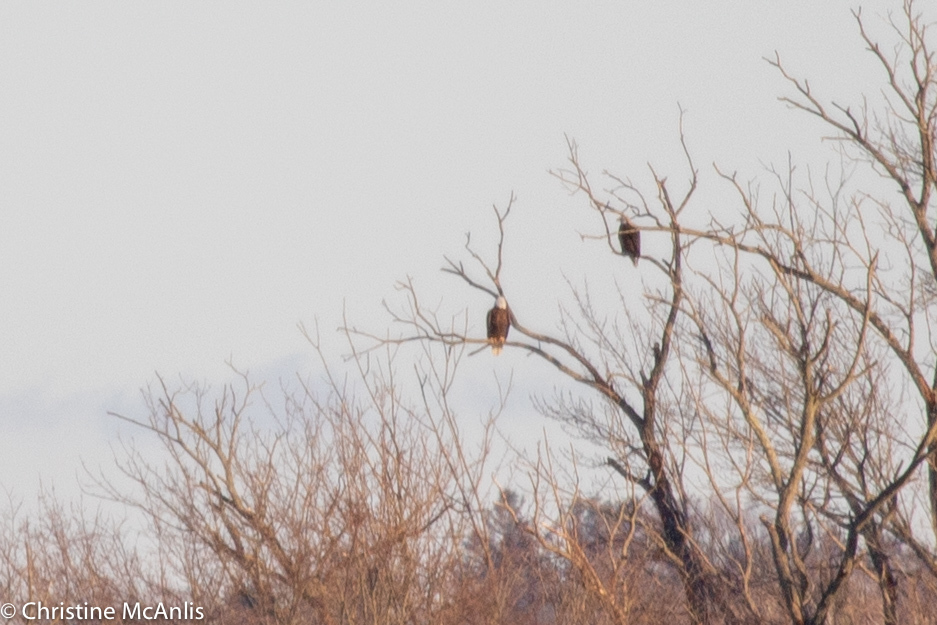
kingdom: Animalia
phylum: Chordata
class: Aves
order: Accipitriformes
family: Accipitridae
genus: Haliaeetus
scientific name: Haliaeetus leucocephalus
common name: Bald eagle
